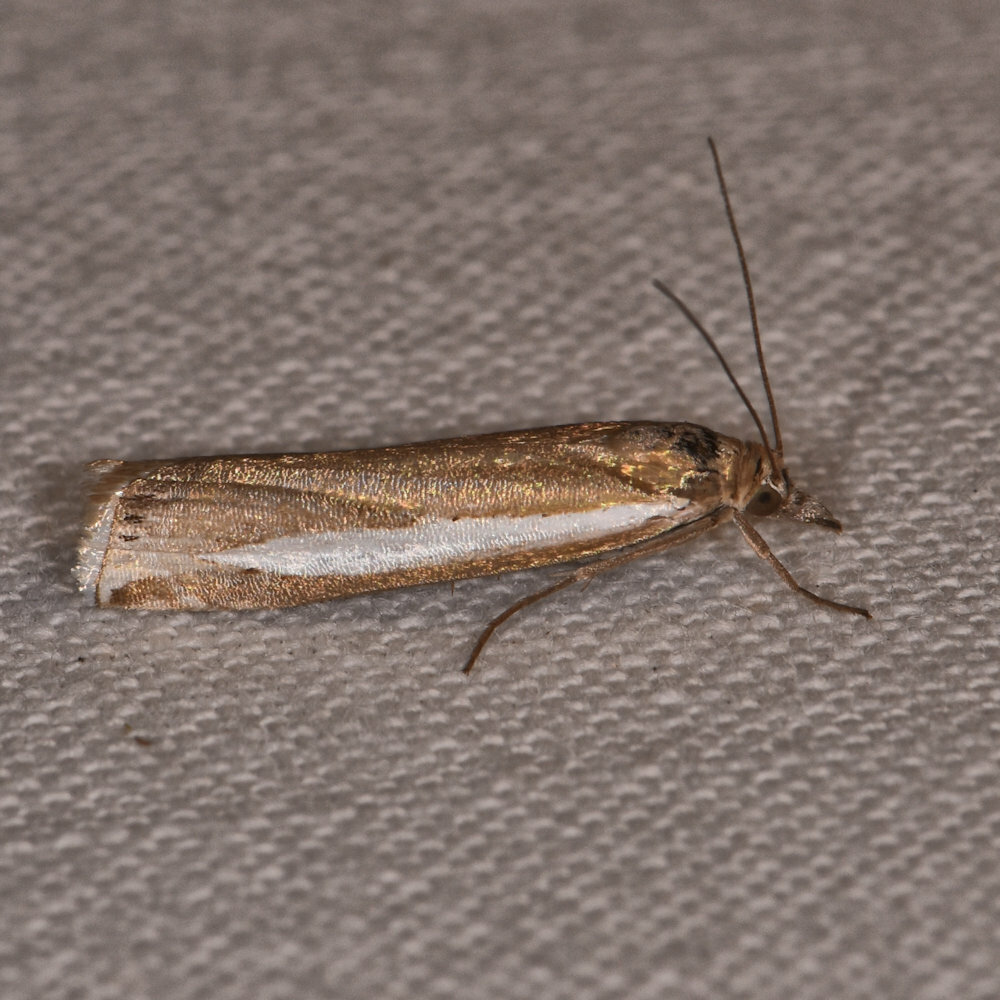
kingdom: Animalia
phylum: Arthropoda
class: Insecta
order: Lepidoptera
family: Crambidae
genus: Crambus
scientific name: Crambus praefectellus
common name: Common grass-veneer
